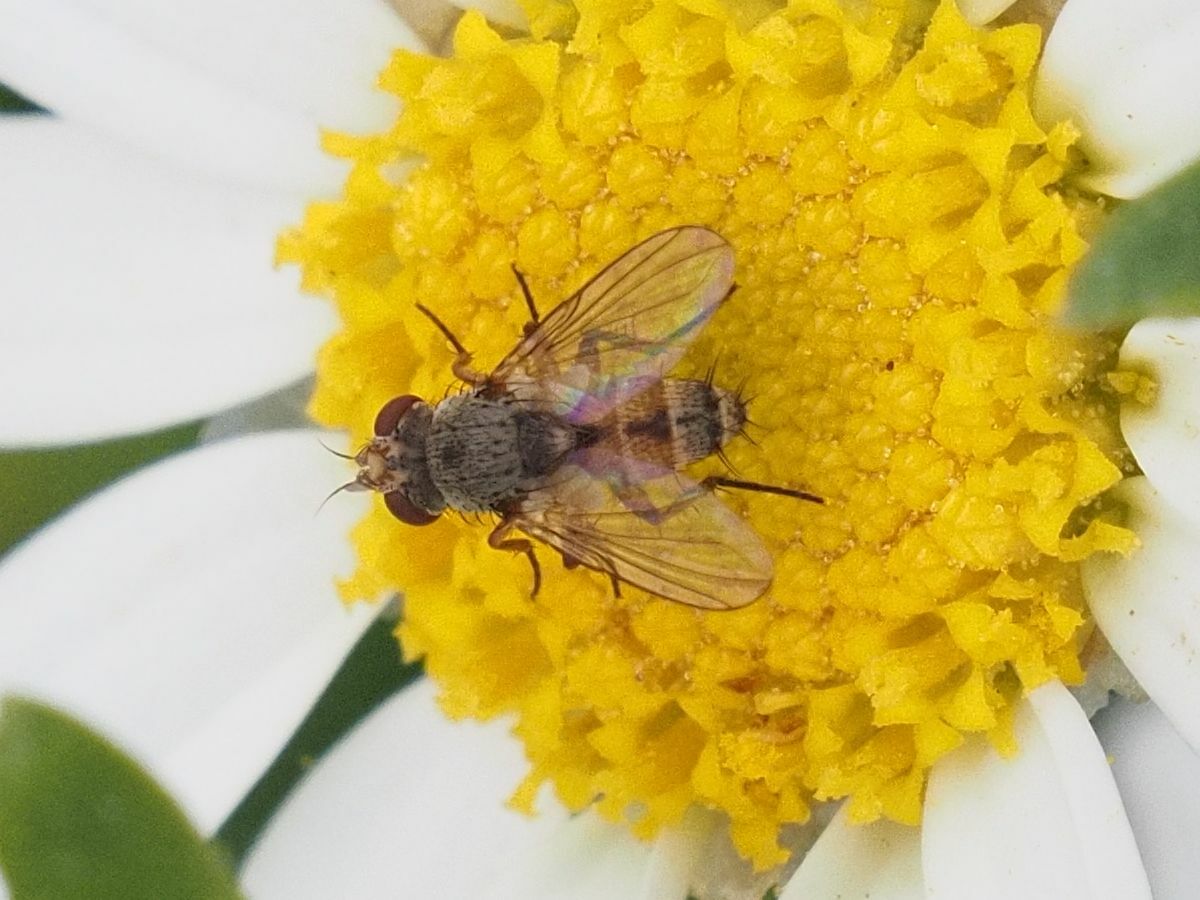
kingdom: Animalia
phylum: Arthropoda
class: Insecta
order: Diptera
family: Tachinidae
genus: Siphona
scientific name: Siphona seyrigi
